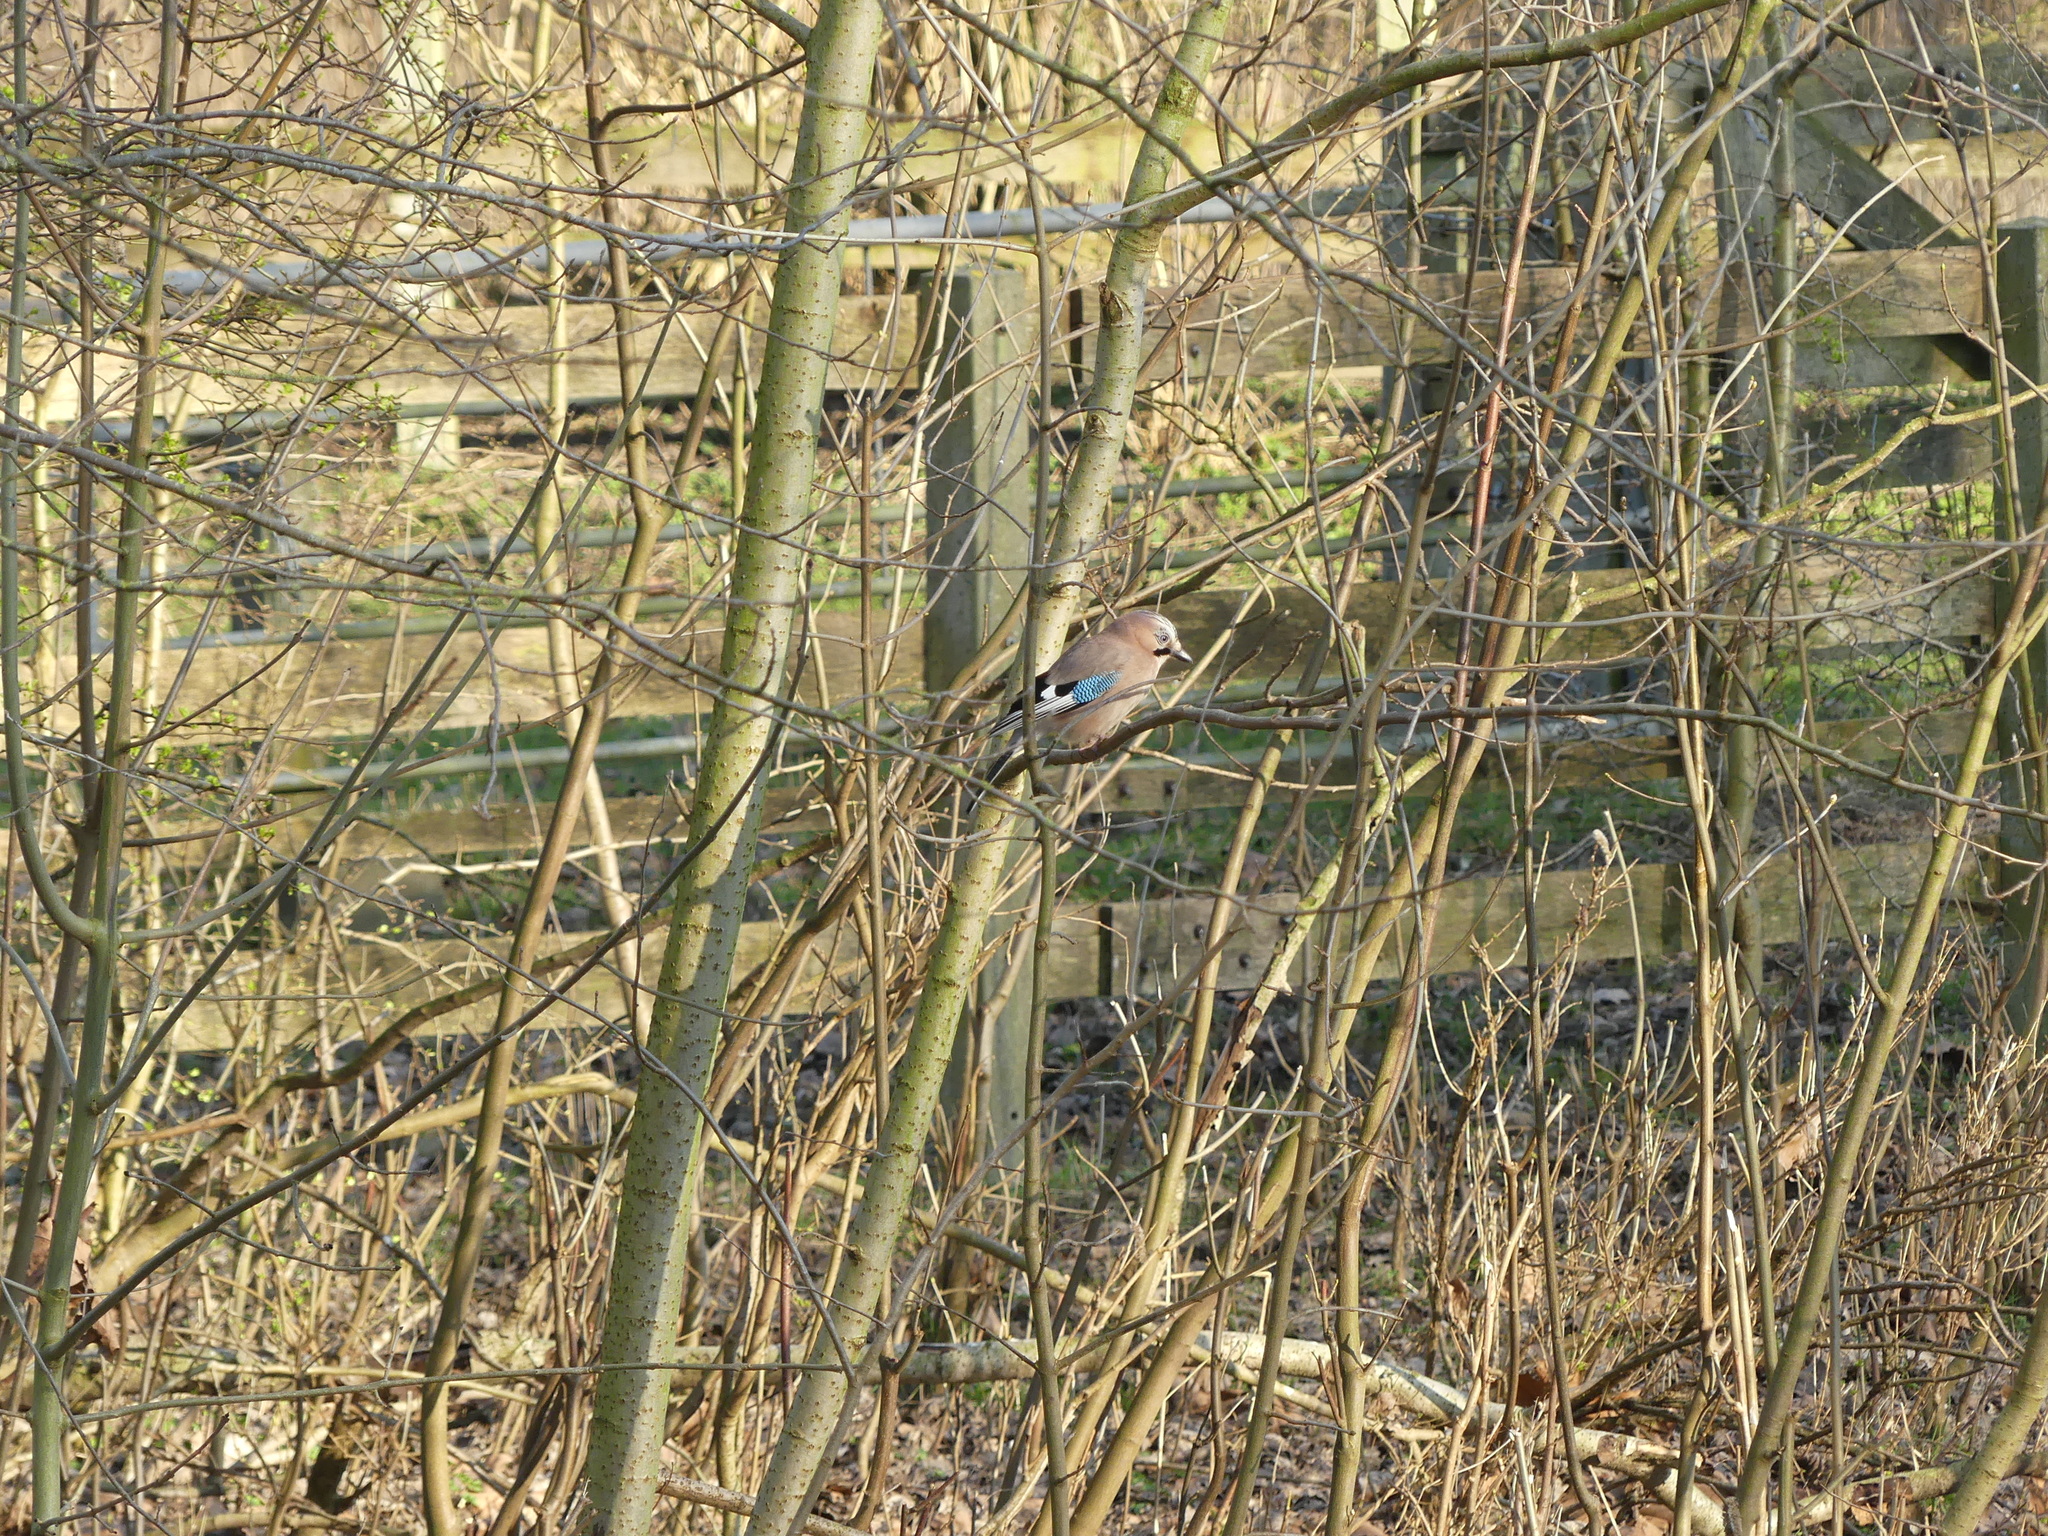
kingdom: Animalia
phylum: Chordata
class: Aves
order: Passeriformes
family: Corvidae
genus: Garrulus
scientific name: Garrulus glandarius
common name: Eurasian jay
